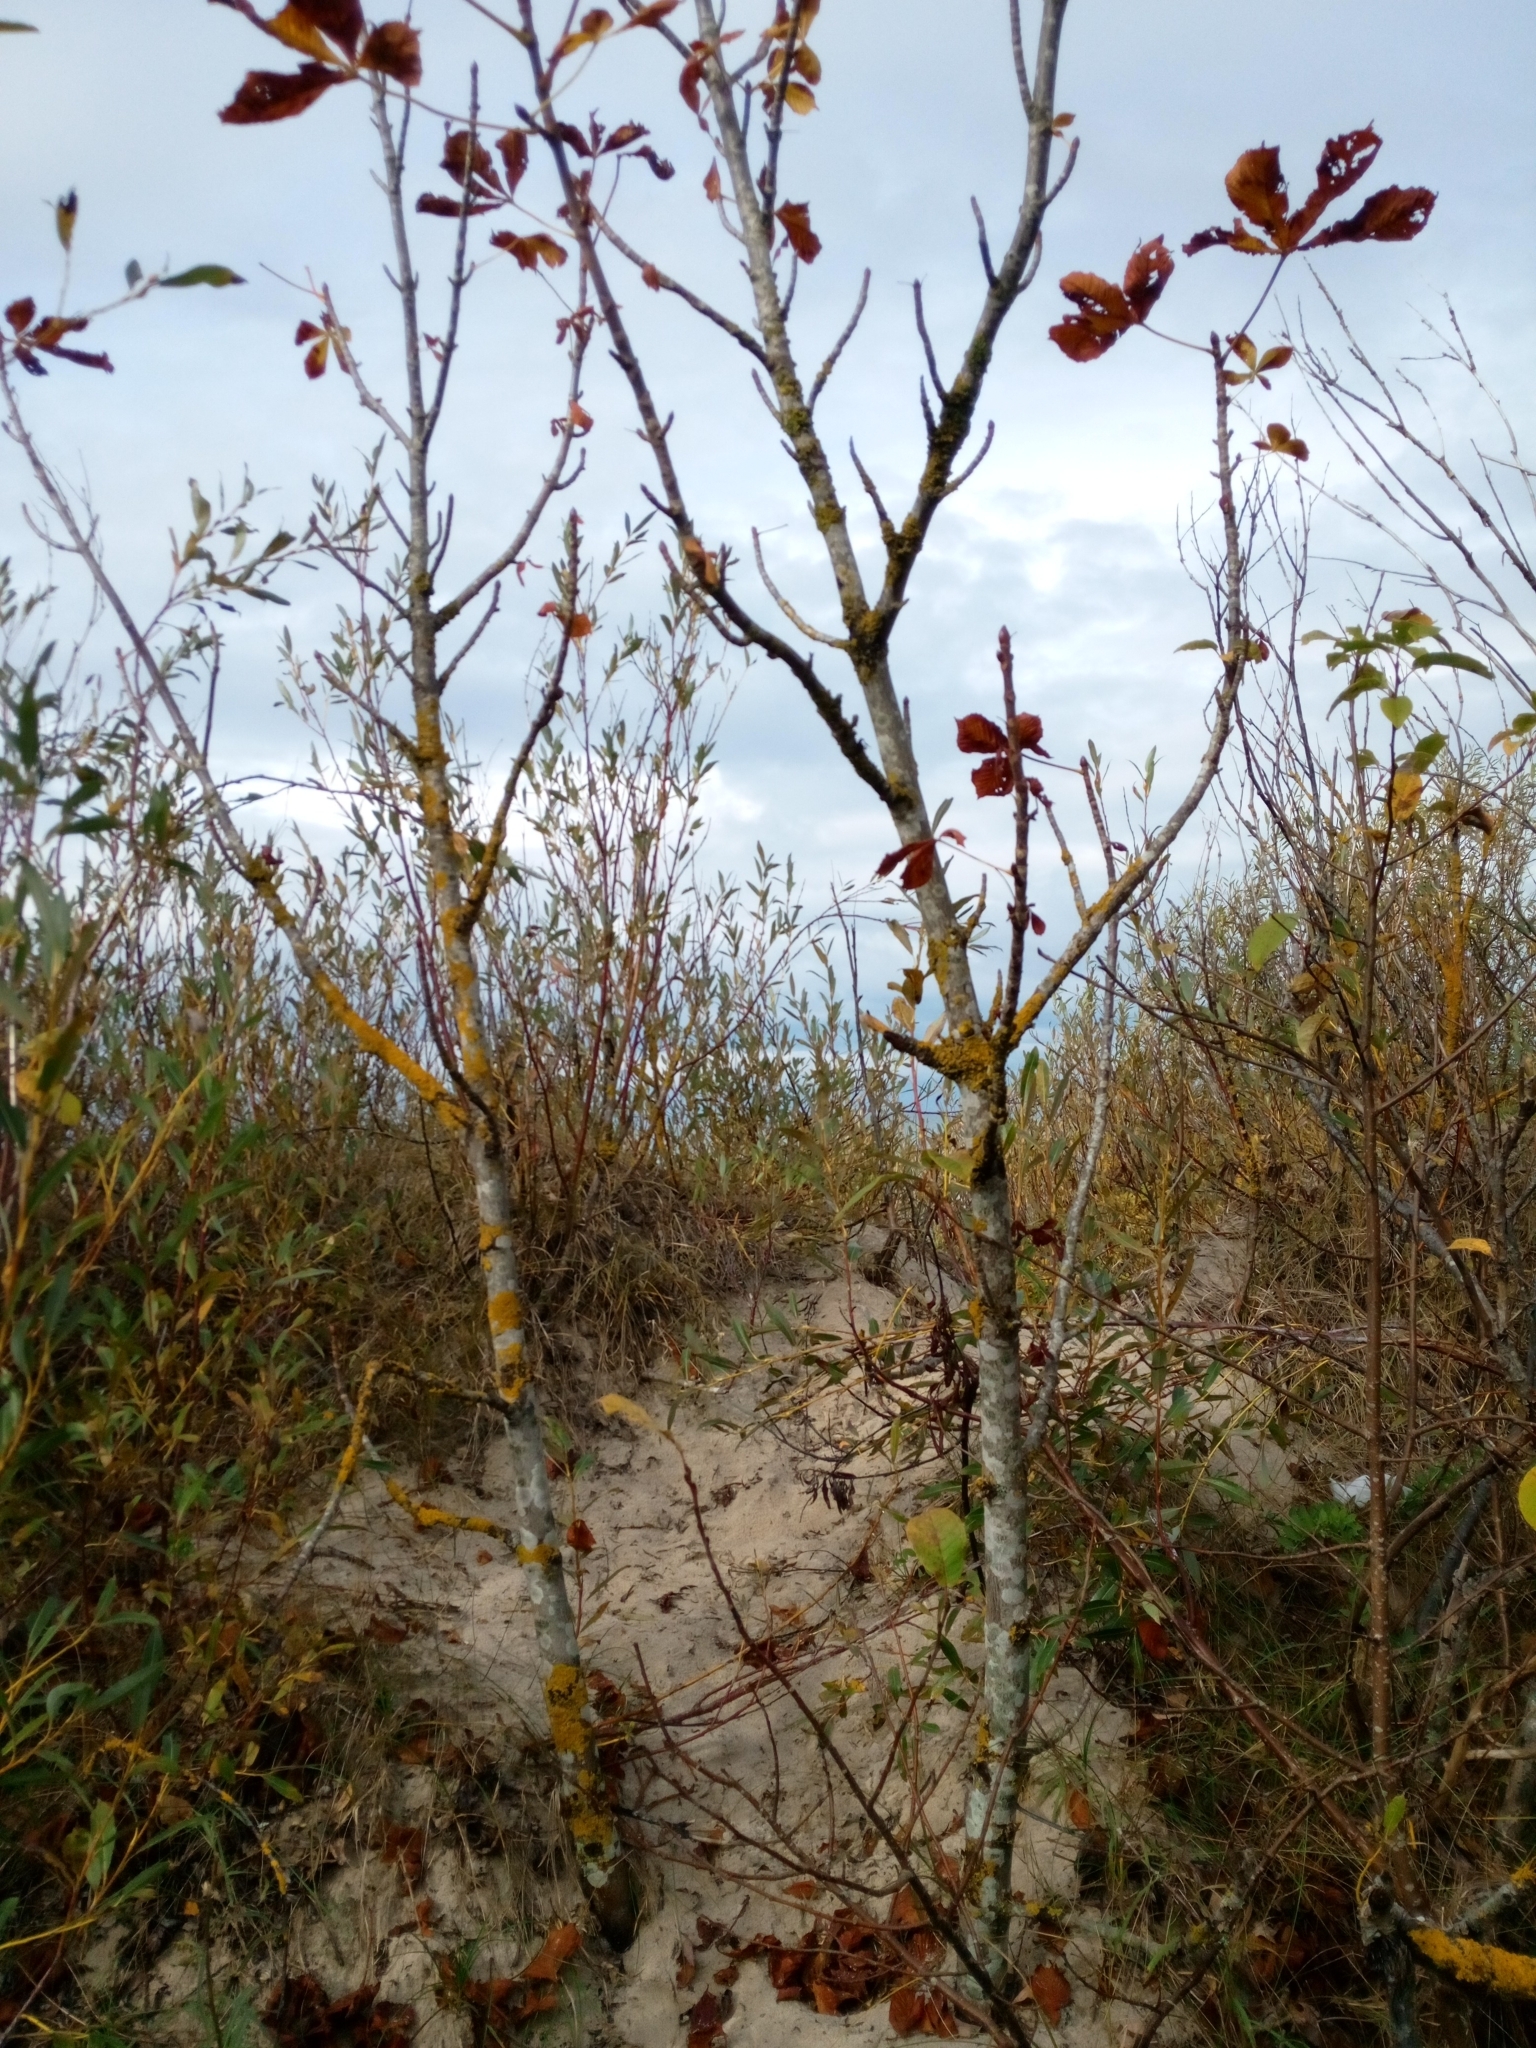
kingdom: Plantae
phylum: Tracheophyta
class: Magnoliopsida
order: Sapindales
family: Sapindaceae
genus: Aesculus
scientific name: Aesculus hippocastanum
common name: Horse-chestnut
